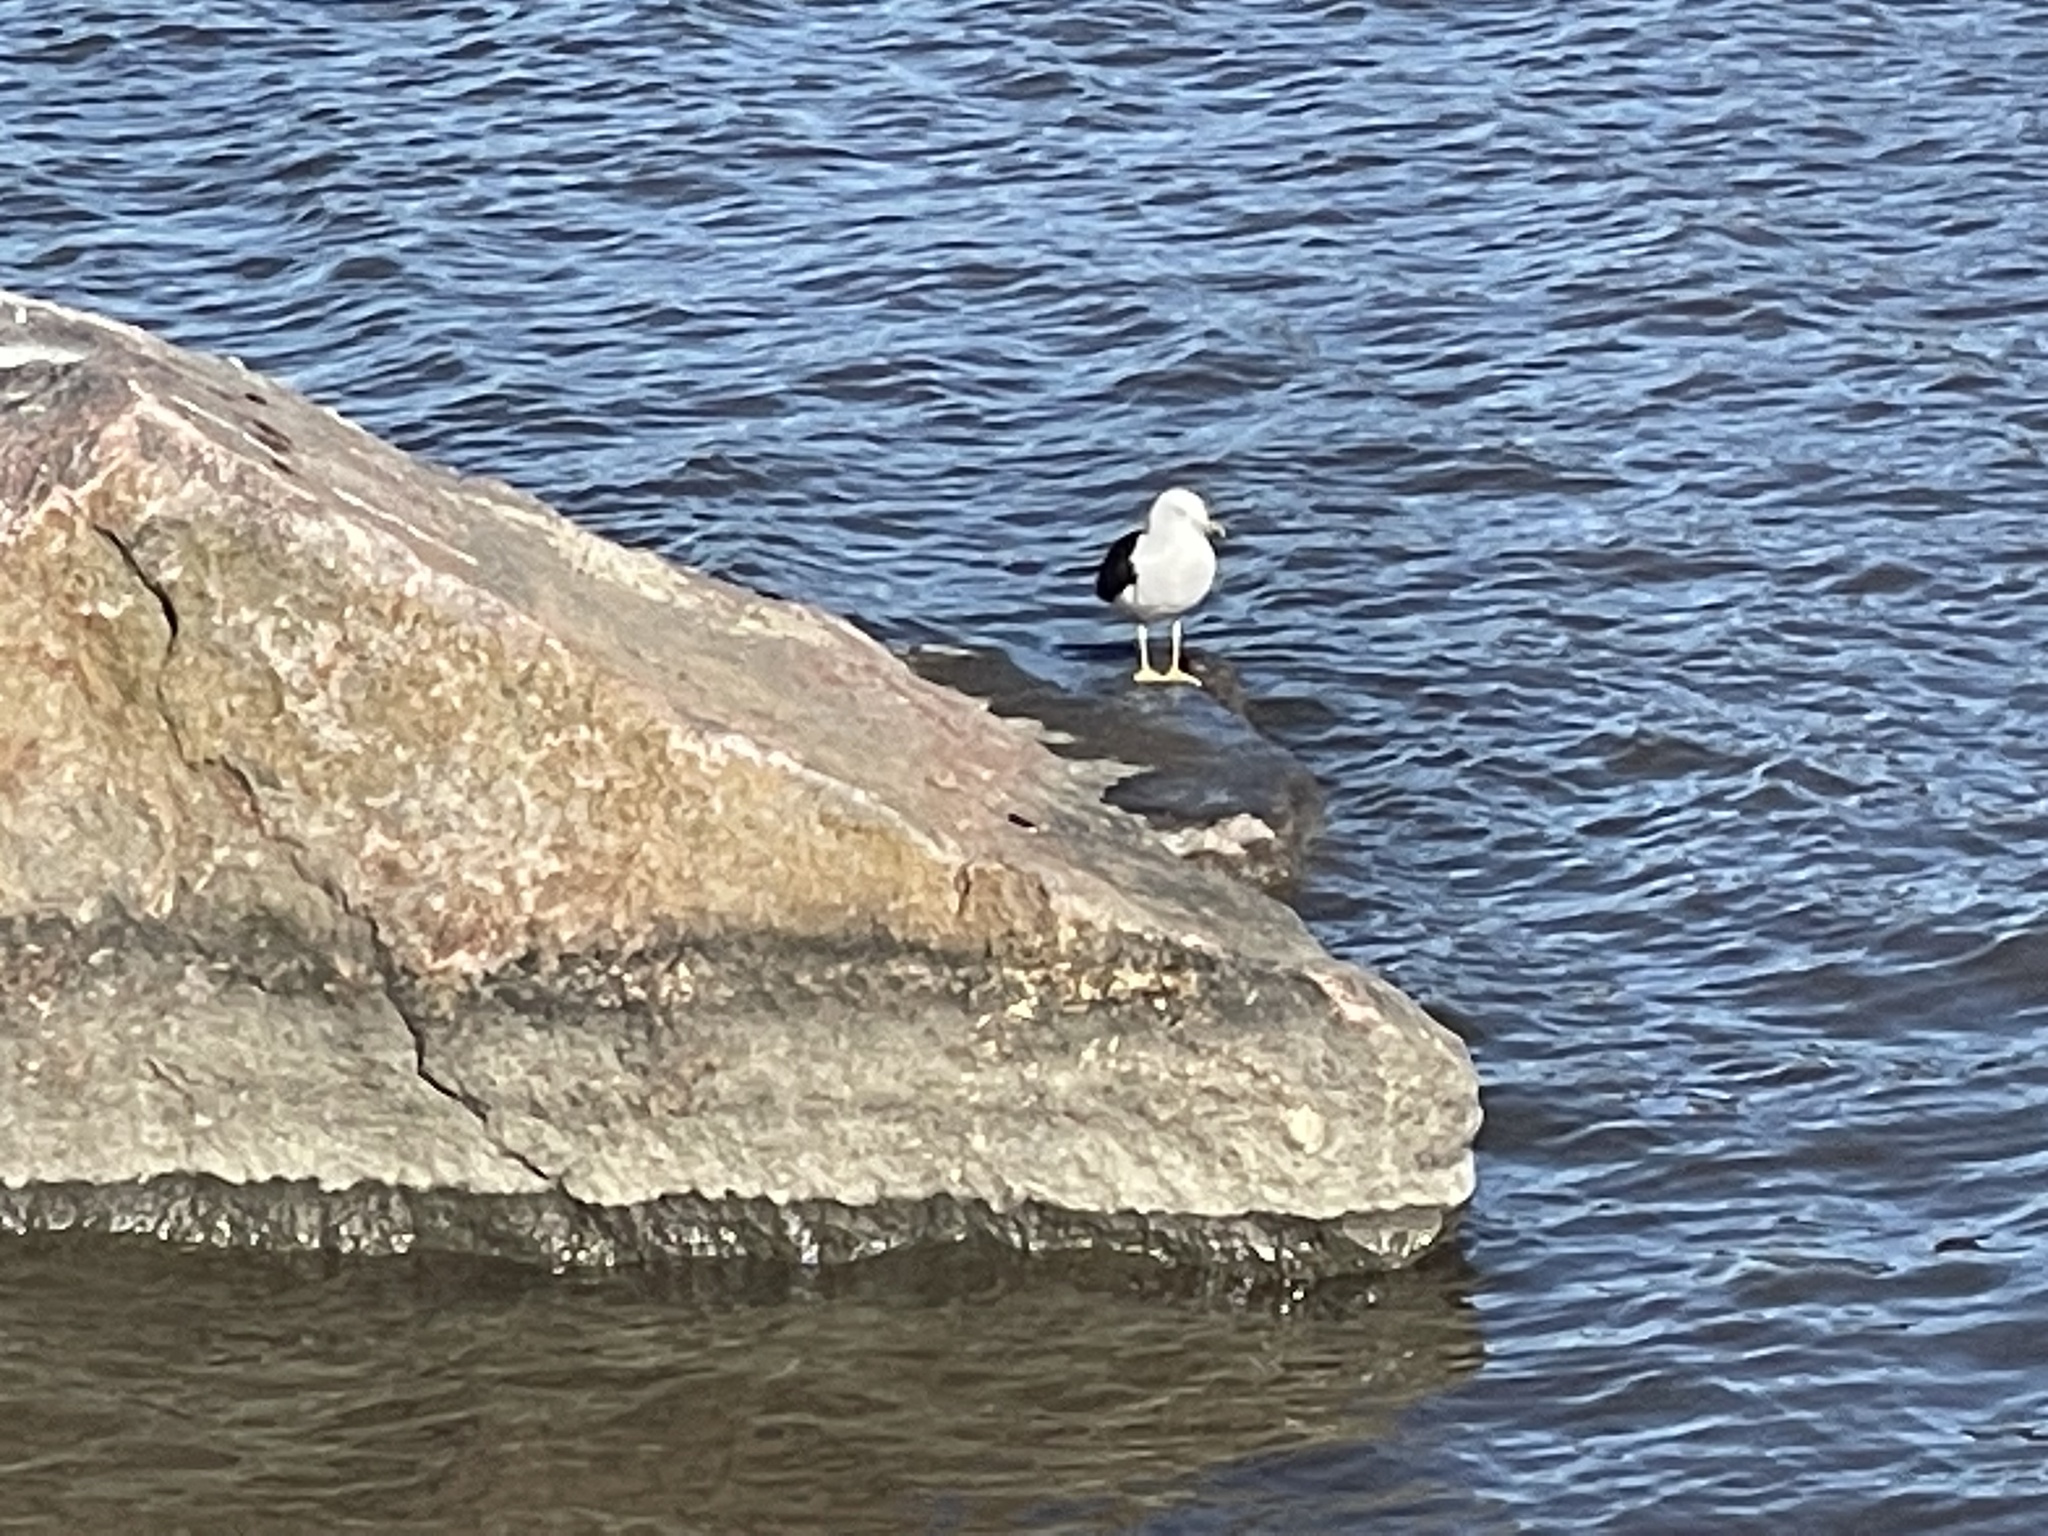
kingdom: Animalia
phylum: Chordata
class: Aves
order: Charadriiformes
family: Laridae
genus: Larus
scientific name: Larus fuscus
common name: Lesser black-backed gull
